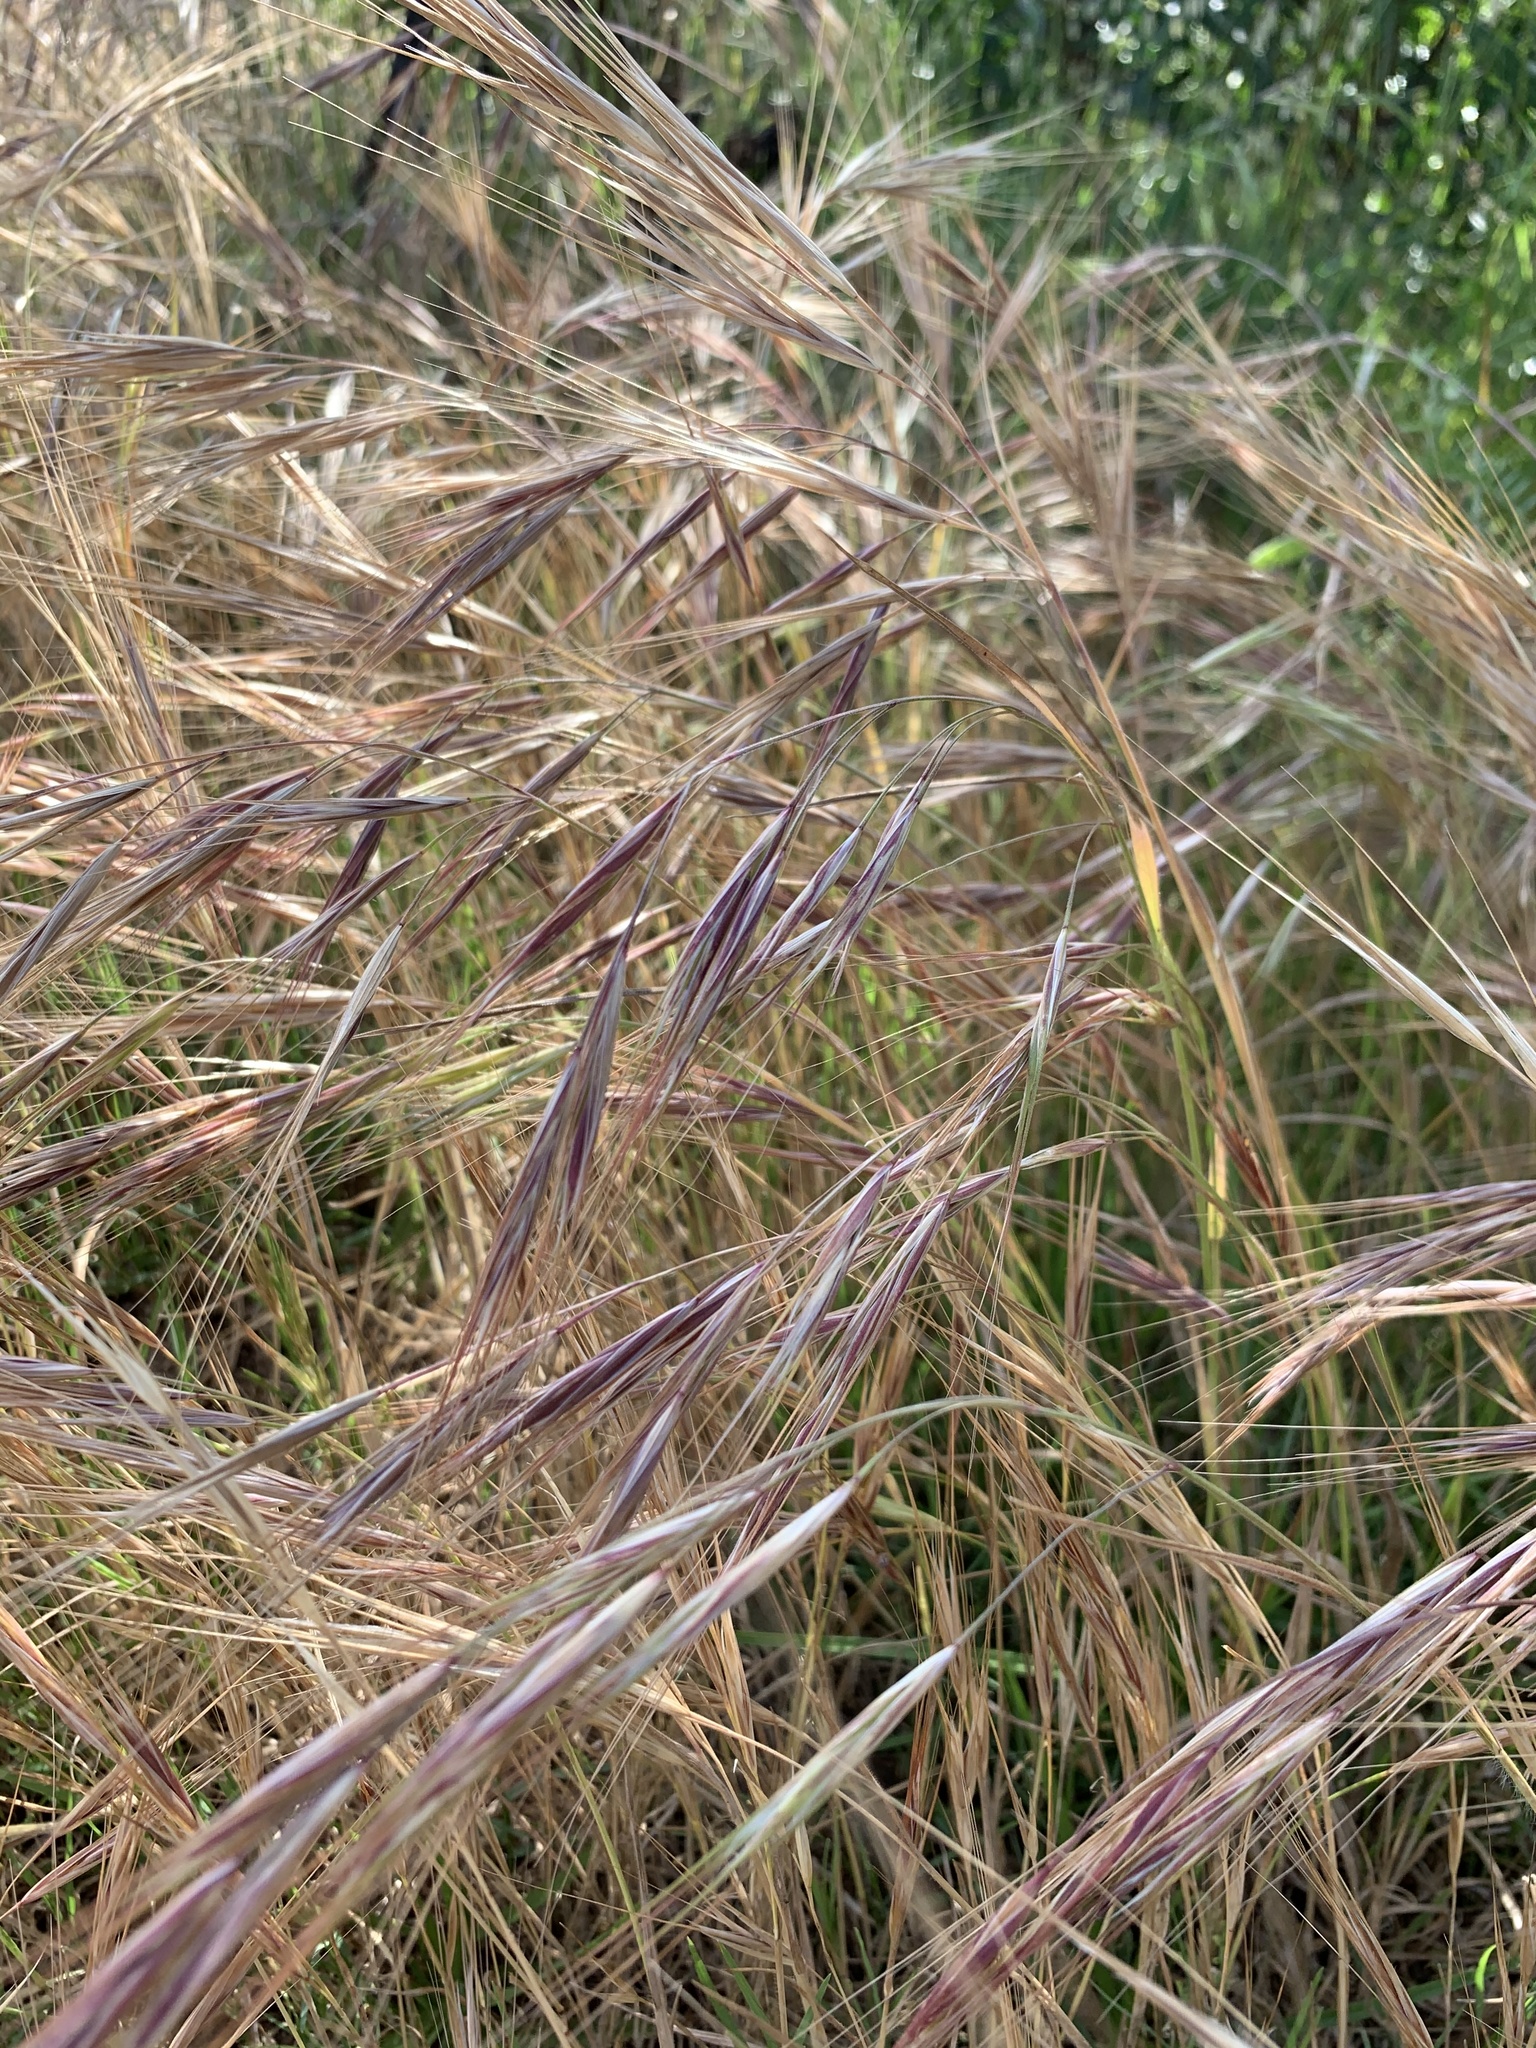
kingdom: Plantae
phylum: Tracheophyta
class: Liliopsida
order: Poales
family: Poaceae
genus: Bromus
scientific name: Bromus diandrus
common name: Ripgut brome
